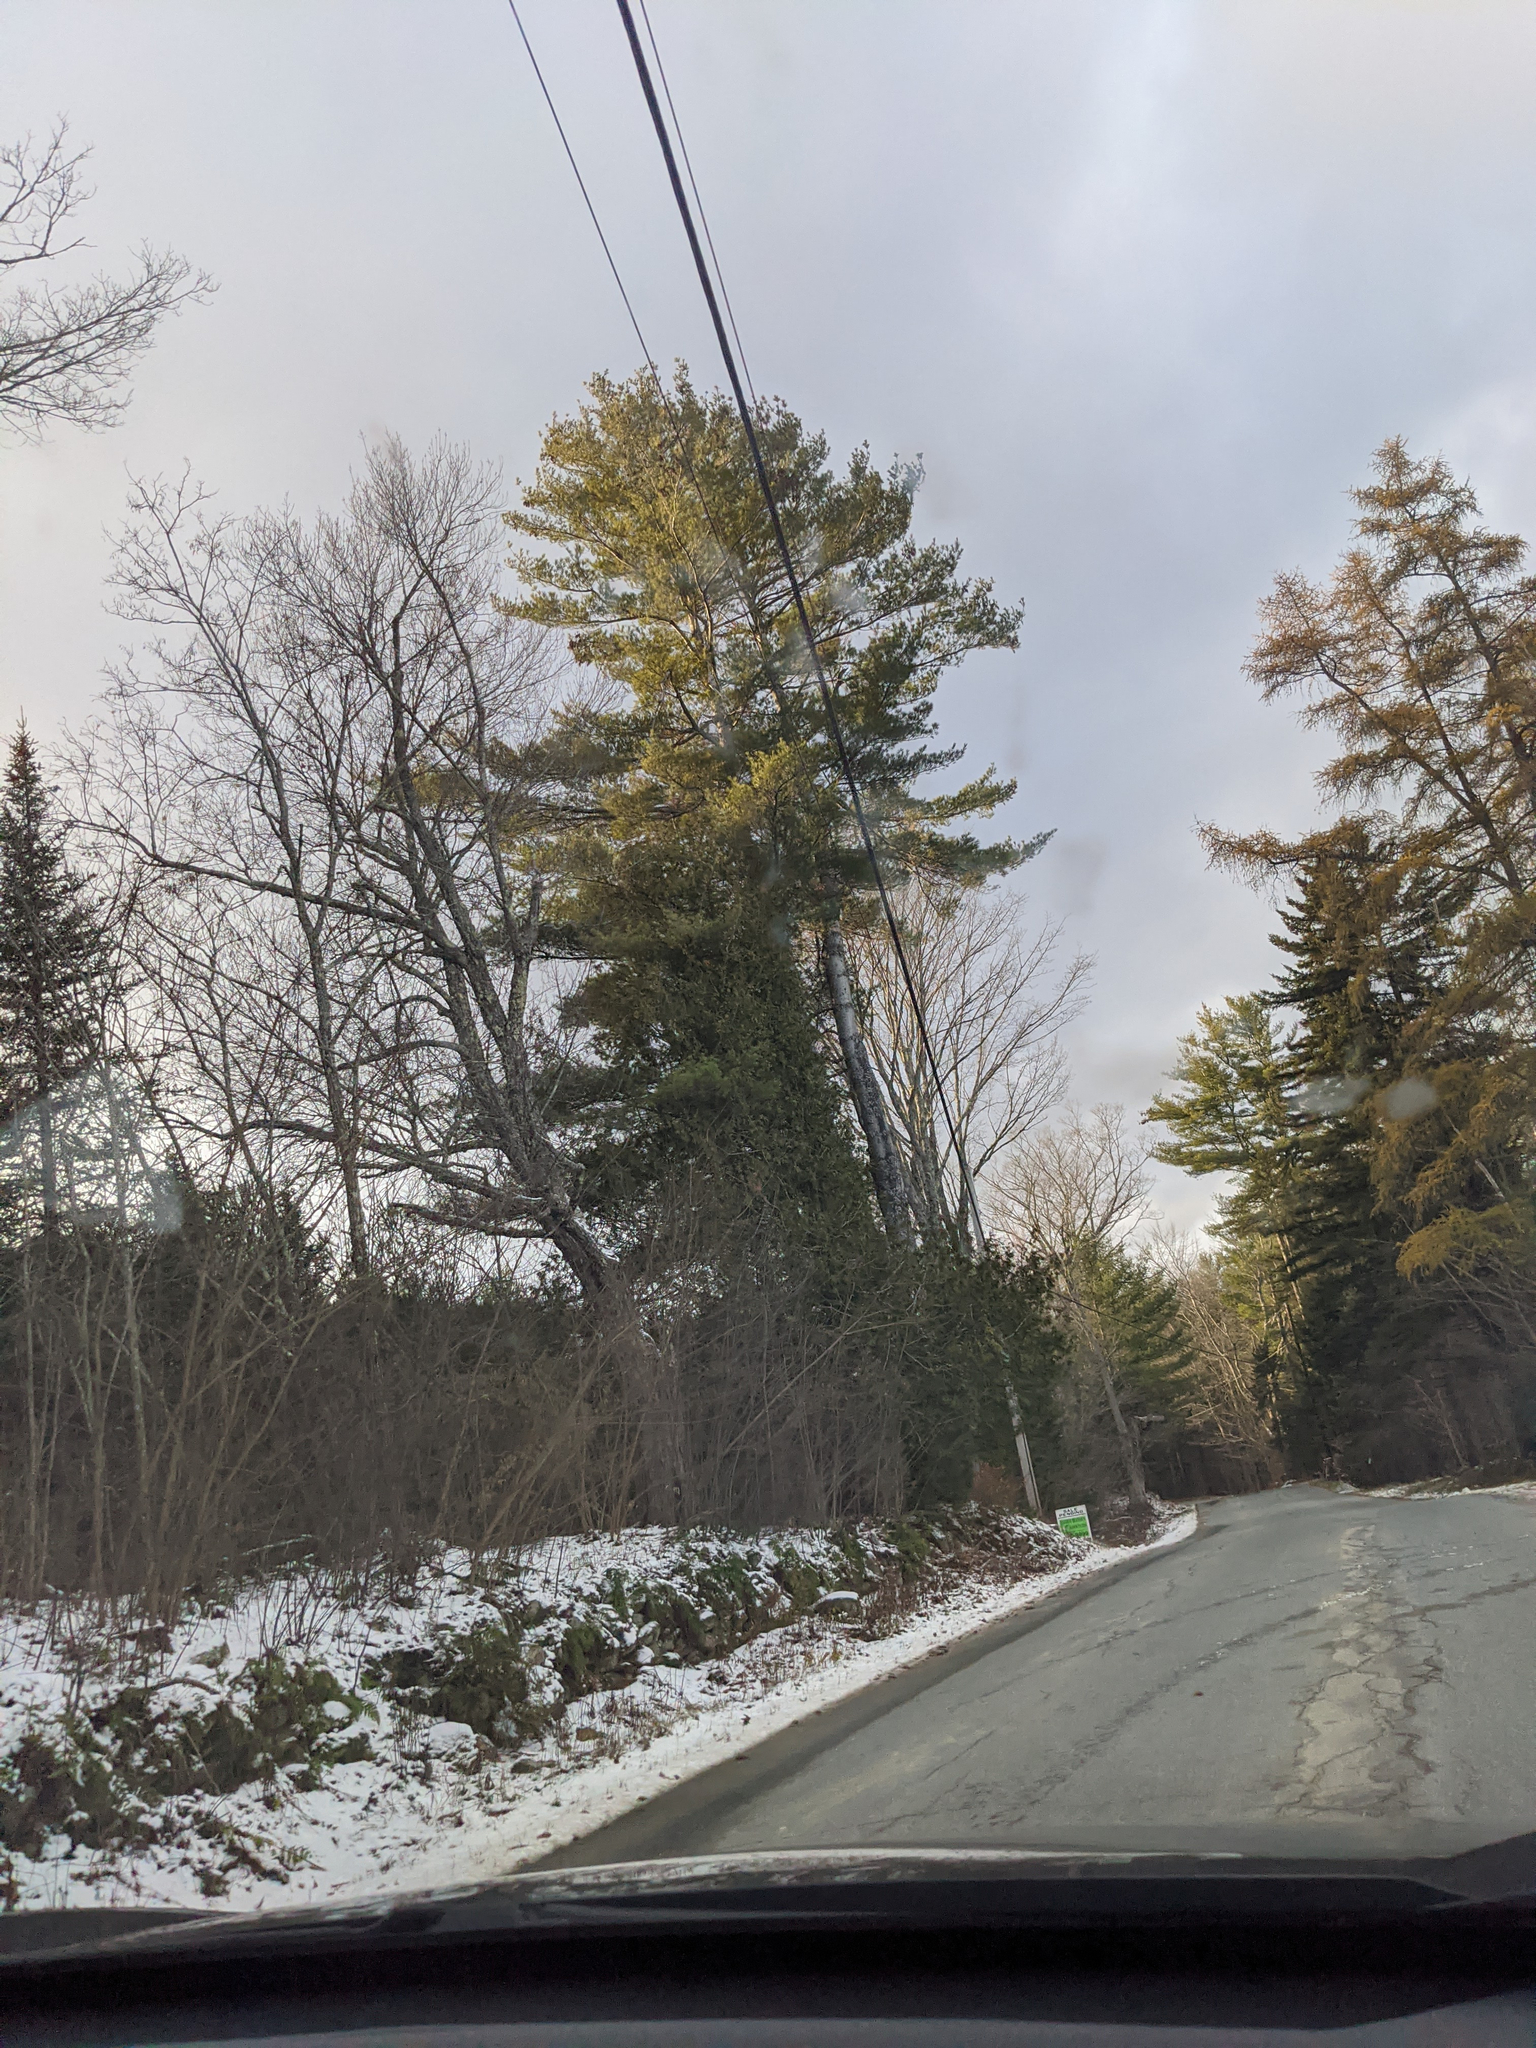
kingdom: Plantae
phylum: Tracheophyta
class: Pinopsida
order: Pinales
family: Pinaceae
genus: Pinus
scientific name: Pinus strobus
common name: Weymouth pine
